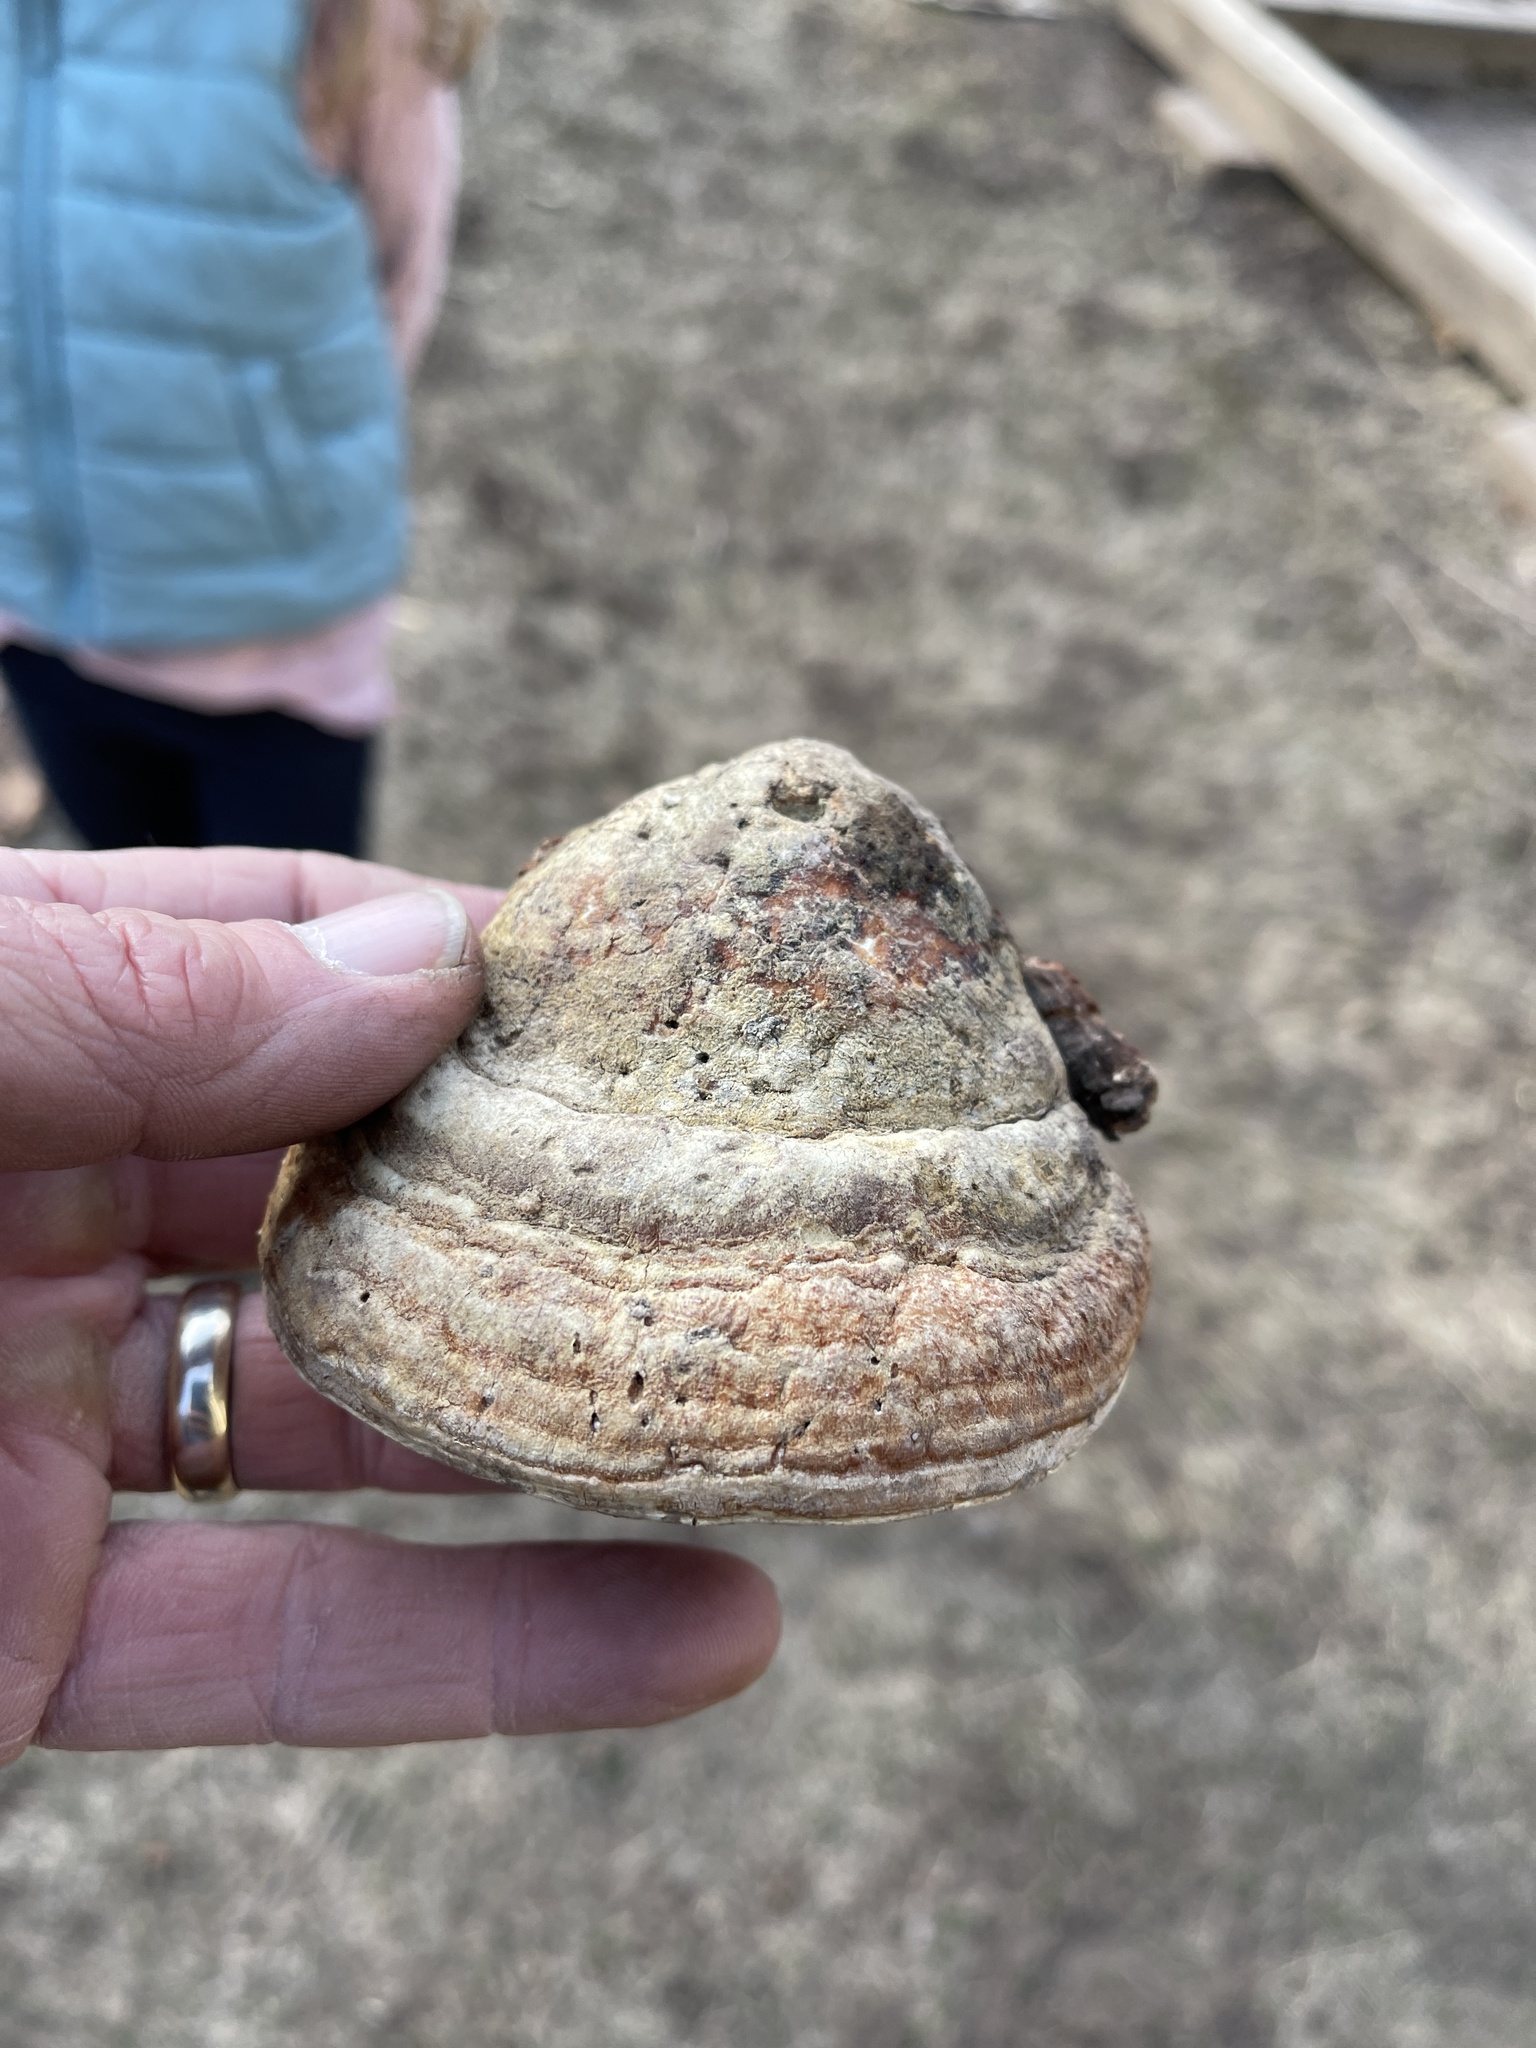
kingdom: Fungi
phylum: Basidiomycota
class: Agaricomycetes
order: Polyporales
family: Fomitopsidaceae
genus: Fomitopsis
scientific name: Fomitopsis schrenkii
